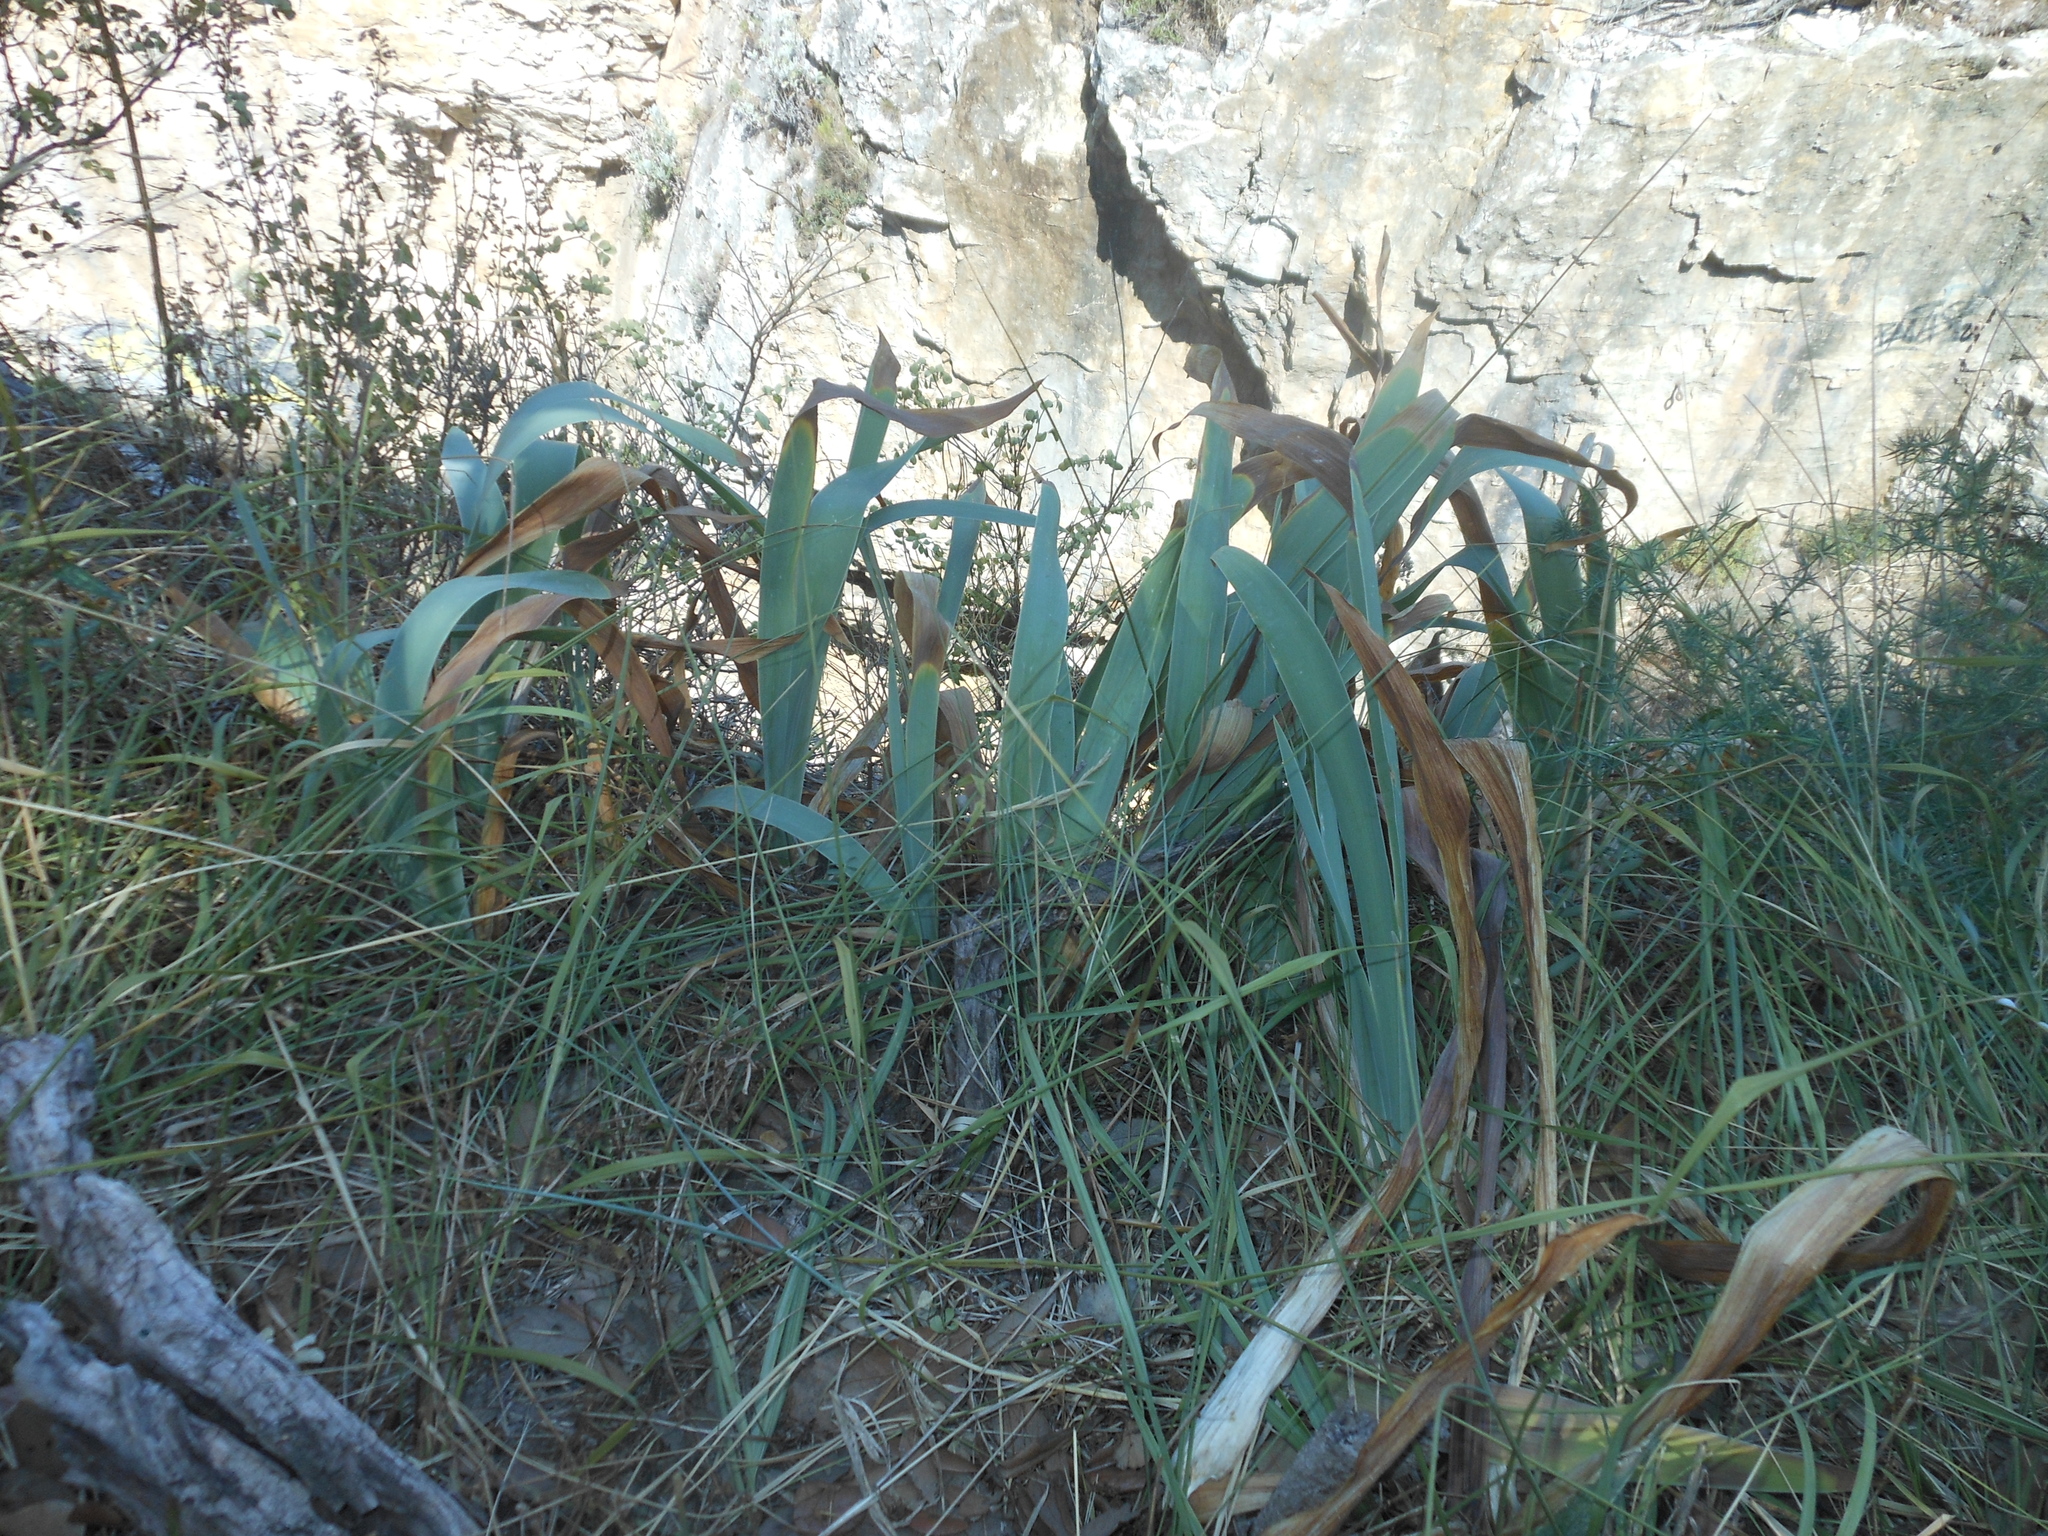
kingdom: Plantae
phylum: Tracheophyta
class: Liliopsida
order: Asparagales
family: Iridaceae
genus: Iris
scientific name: Iris pallida
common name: Sweet iris
